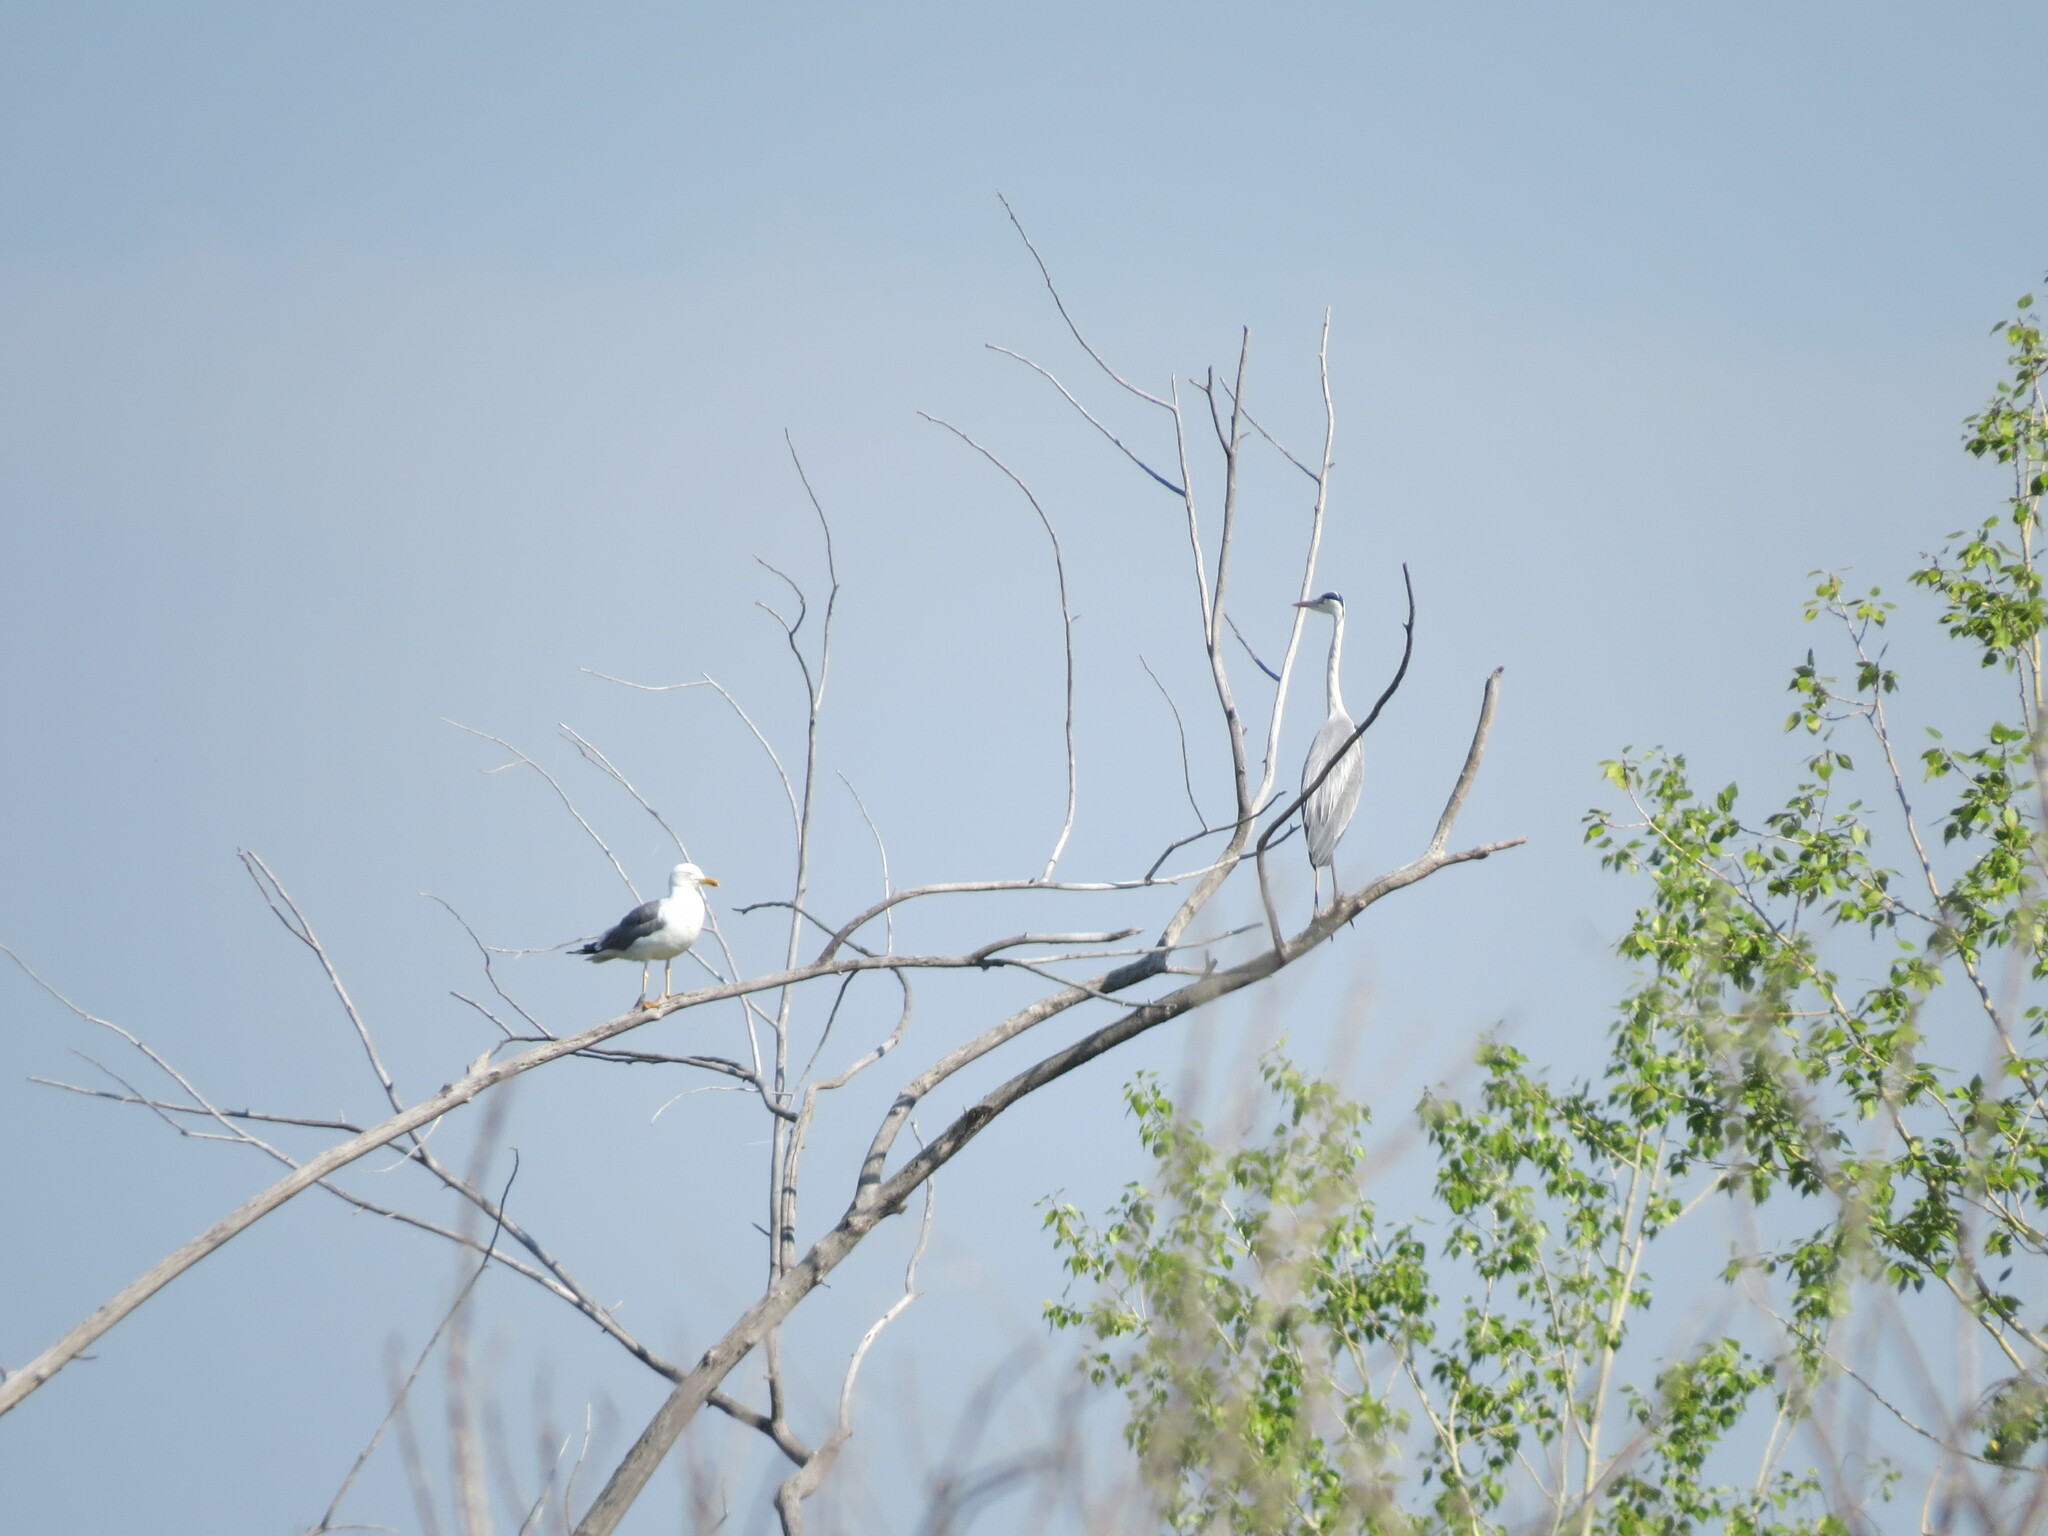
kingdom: Animalia
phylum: Chordata
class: Aves
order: Charadriiformes
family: Laridae
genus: Larus
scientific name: Larus fuscus
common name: Lesser black-backed gull
